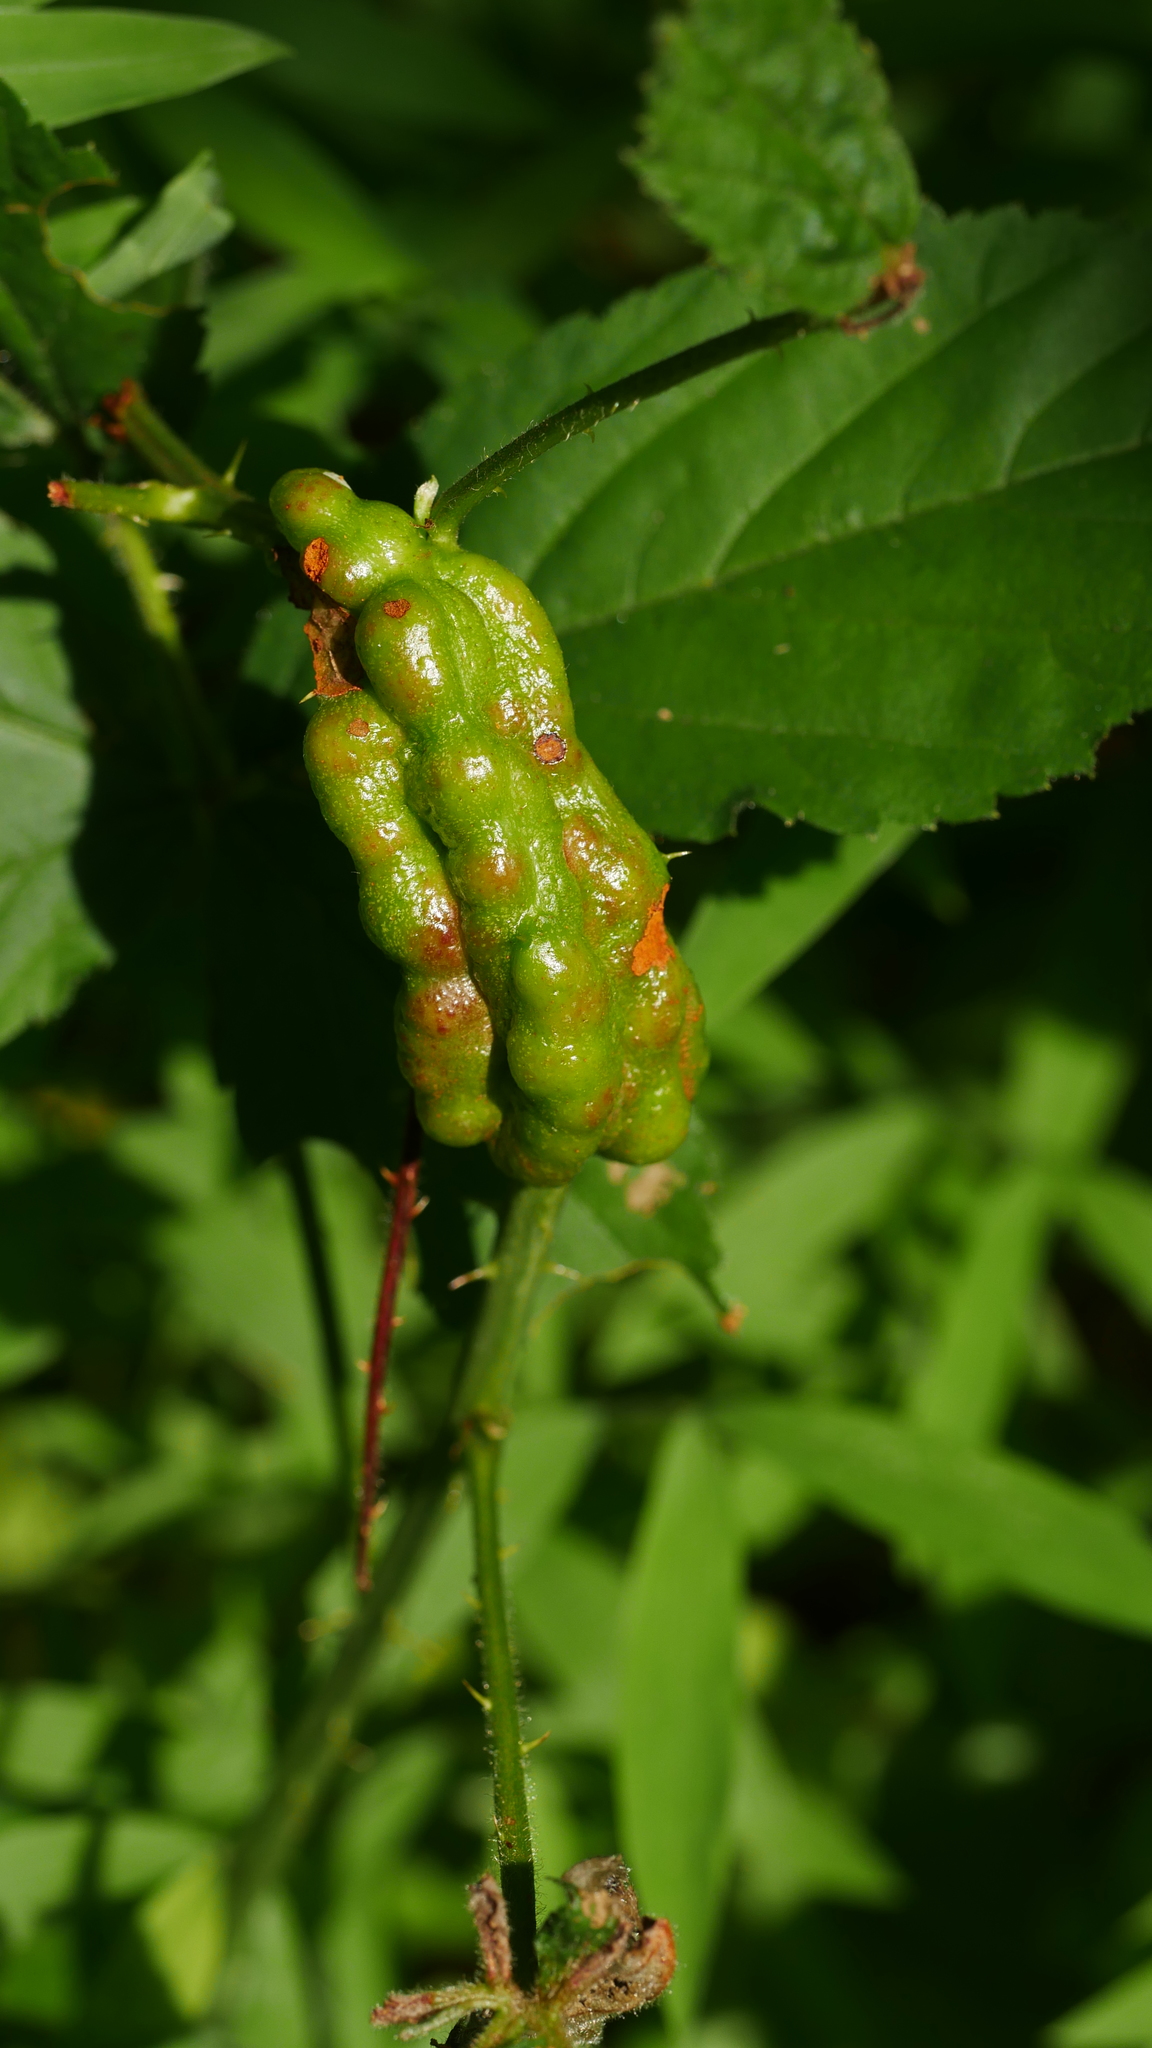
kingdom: Animalia
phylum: Arthropoda
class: Insecta
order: Hymenoptera
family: Cynipidae
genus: Diastrophus
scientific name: Diastrophus
